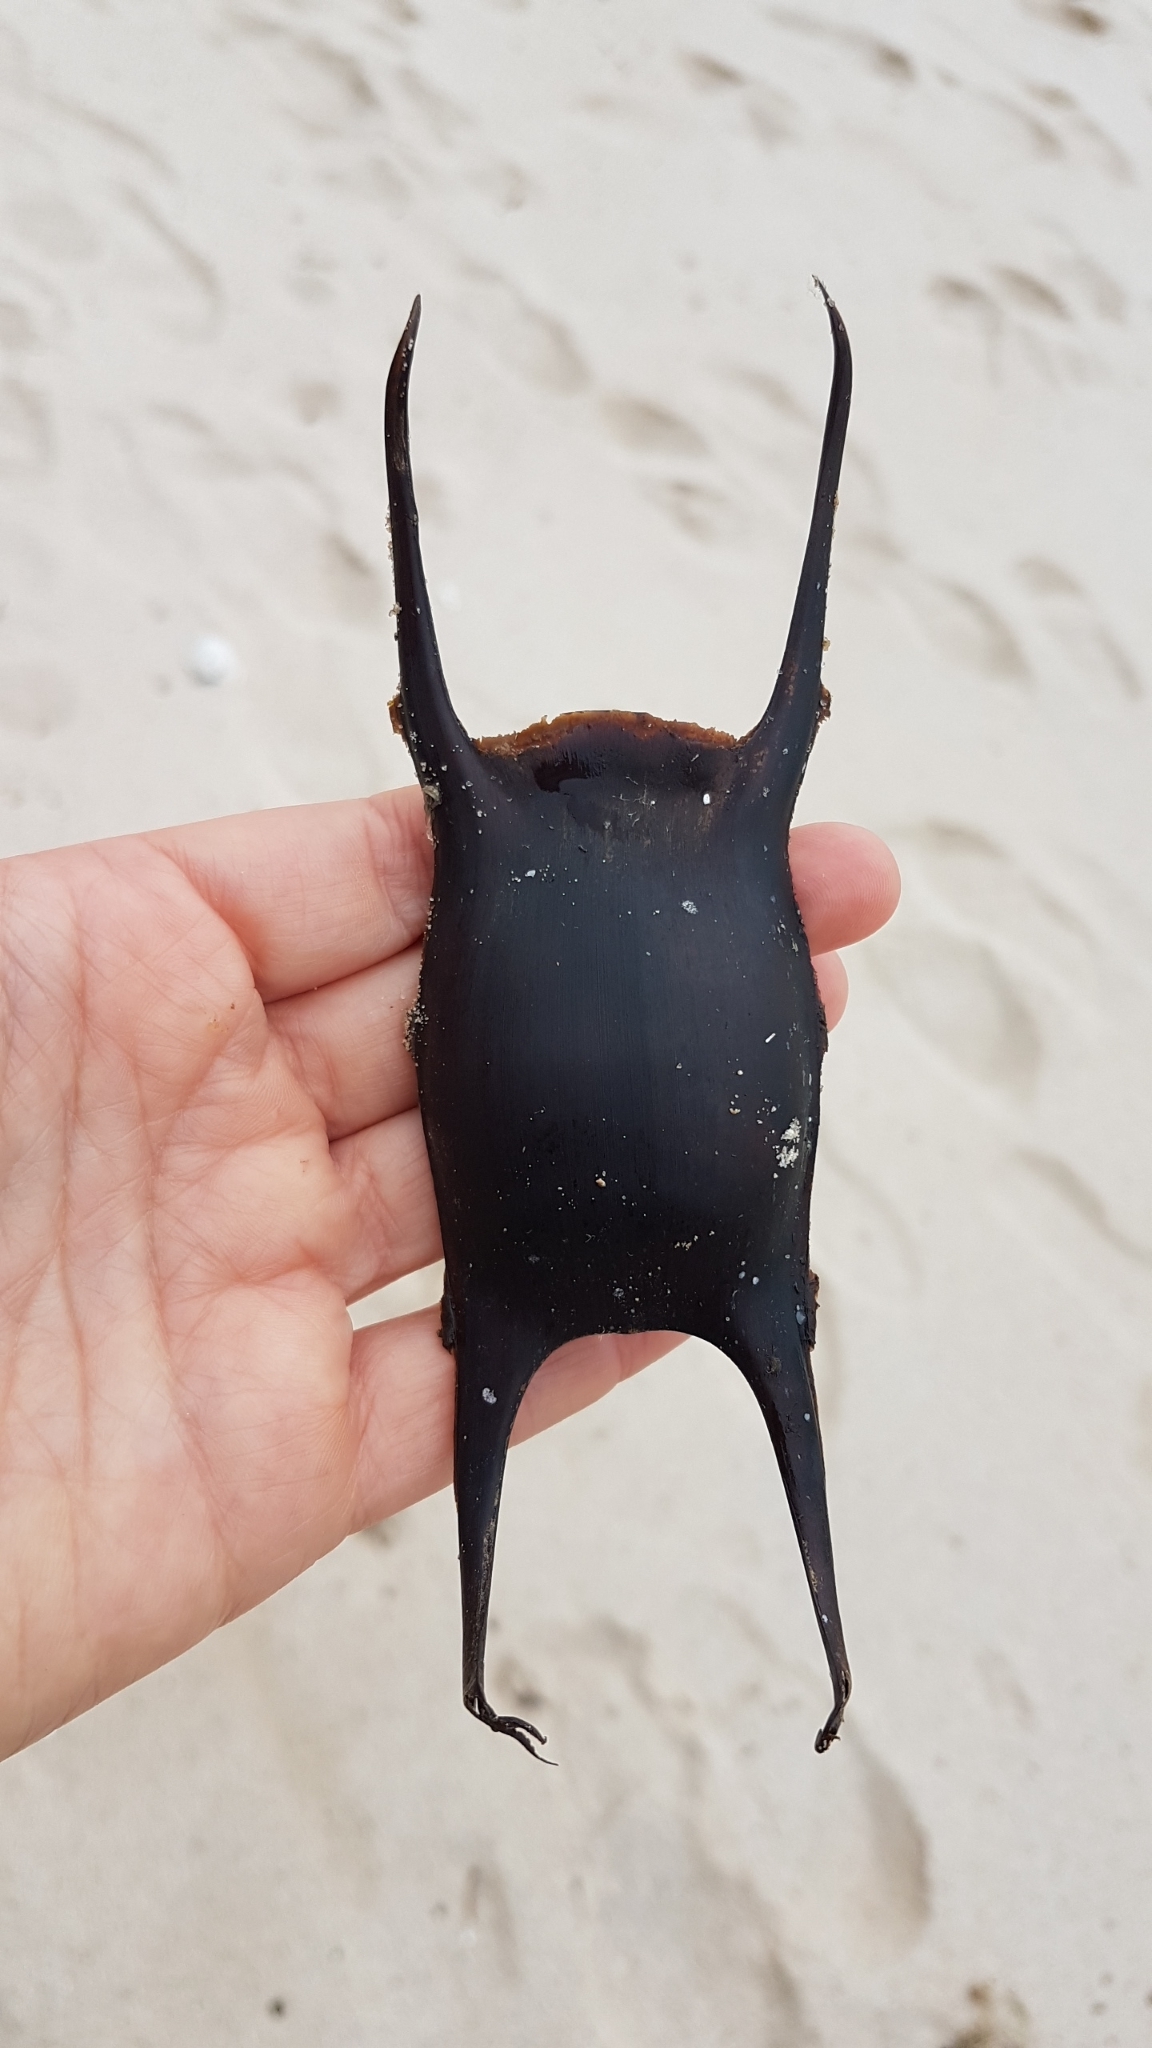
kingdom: Animalia
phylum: Chordata
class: Elasmobranchii
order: Rajiformes
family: Rajidae
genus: Raja
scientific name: Raja undulata
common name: Undulate ray
